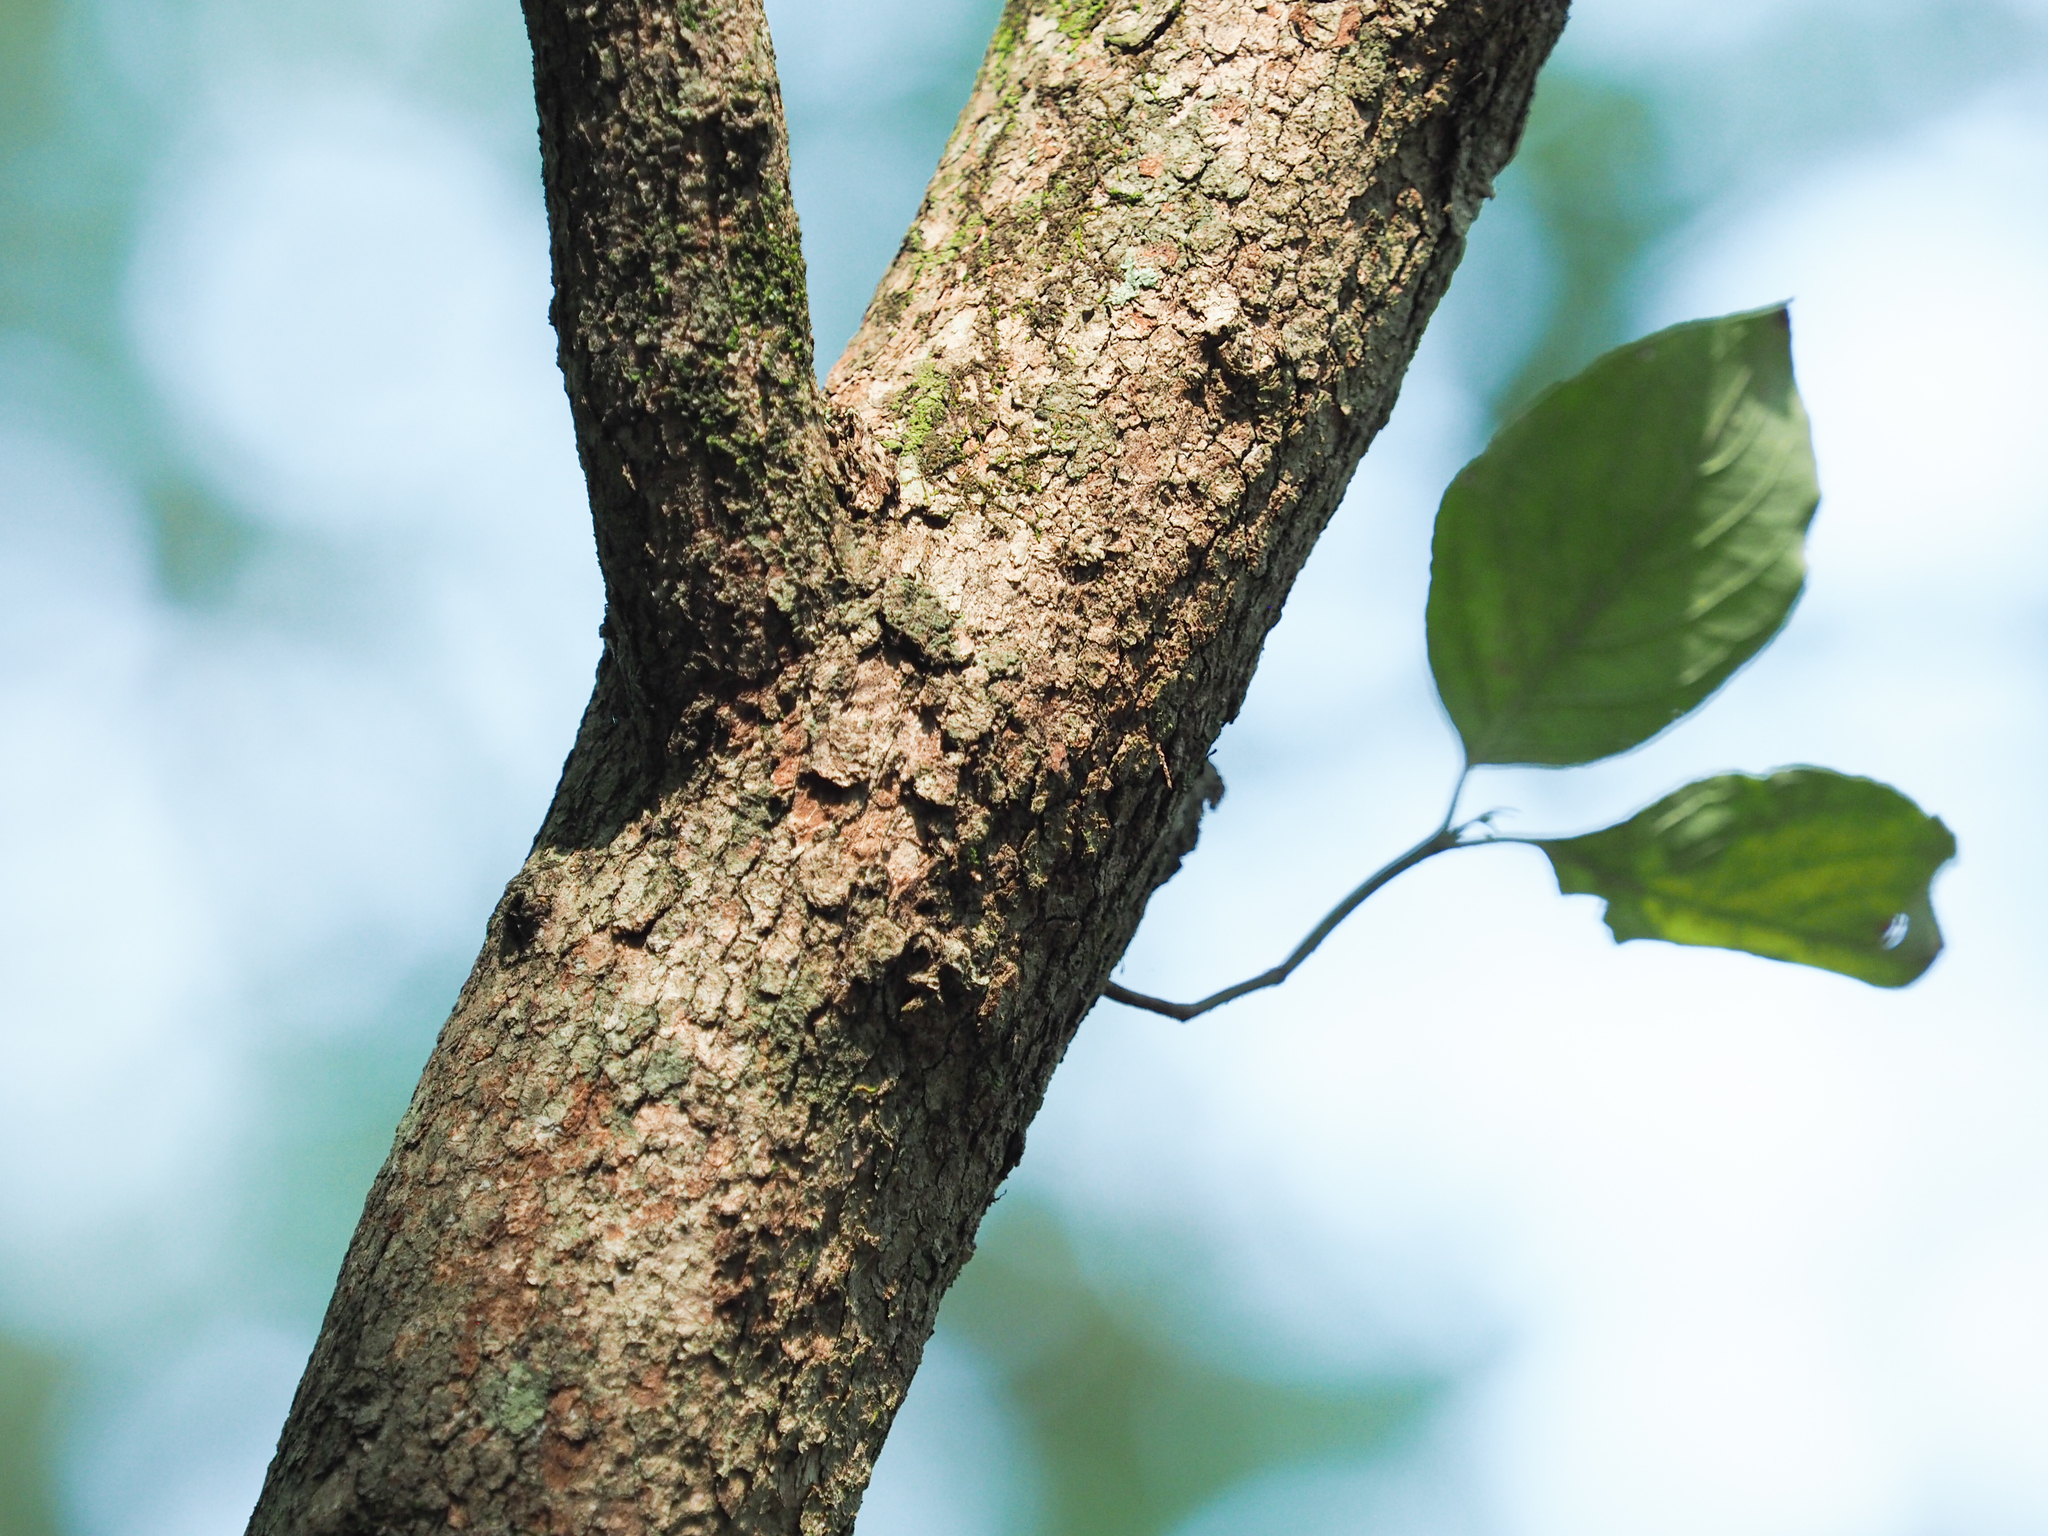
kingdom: Plantae
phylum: Tracheophyta
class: Magnoliopsida
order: Cornales
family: Cornaceae
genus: Cornus
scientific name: Cornus florida
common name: Flowering dogwood
